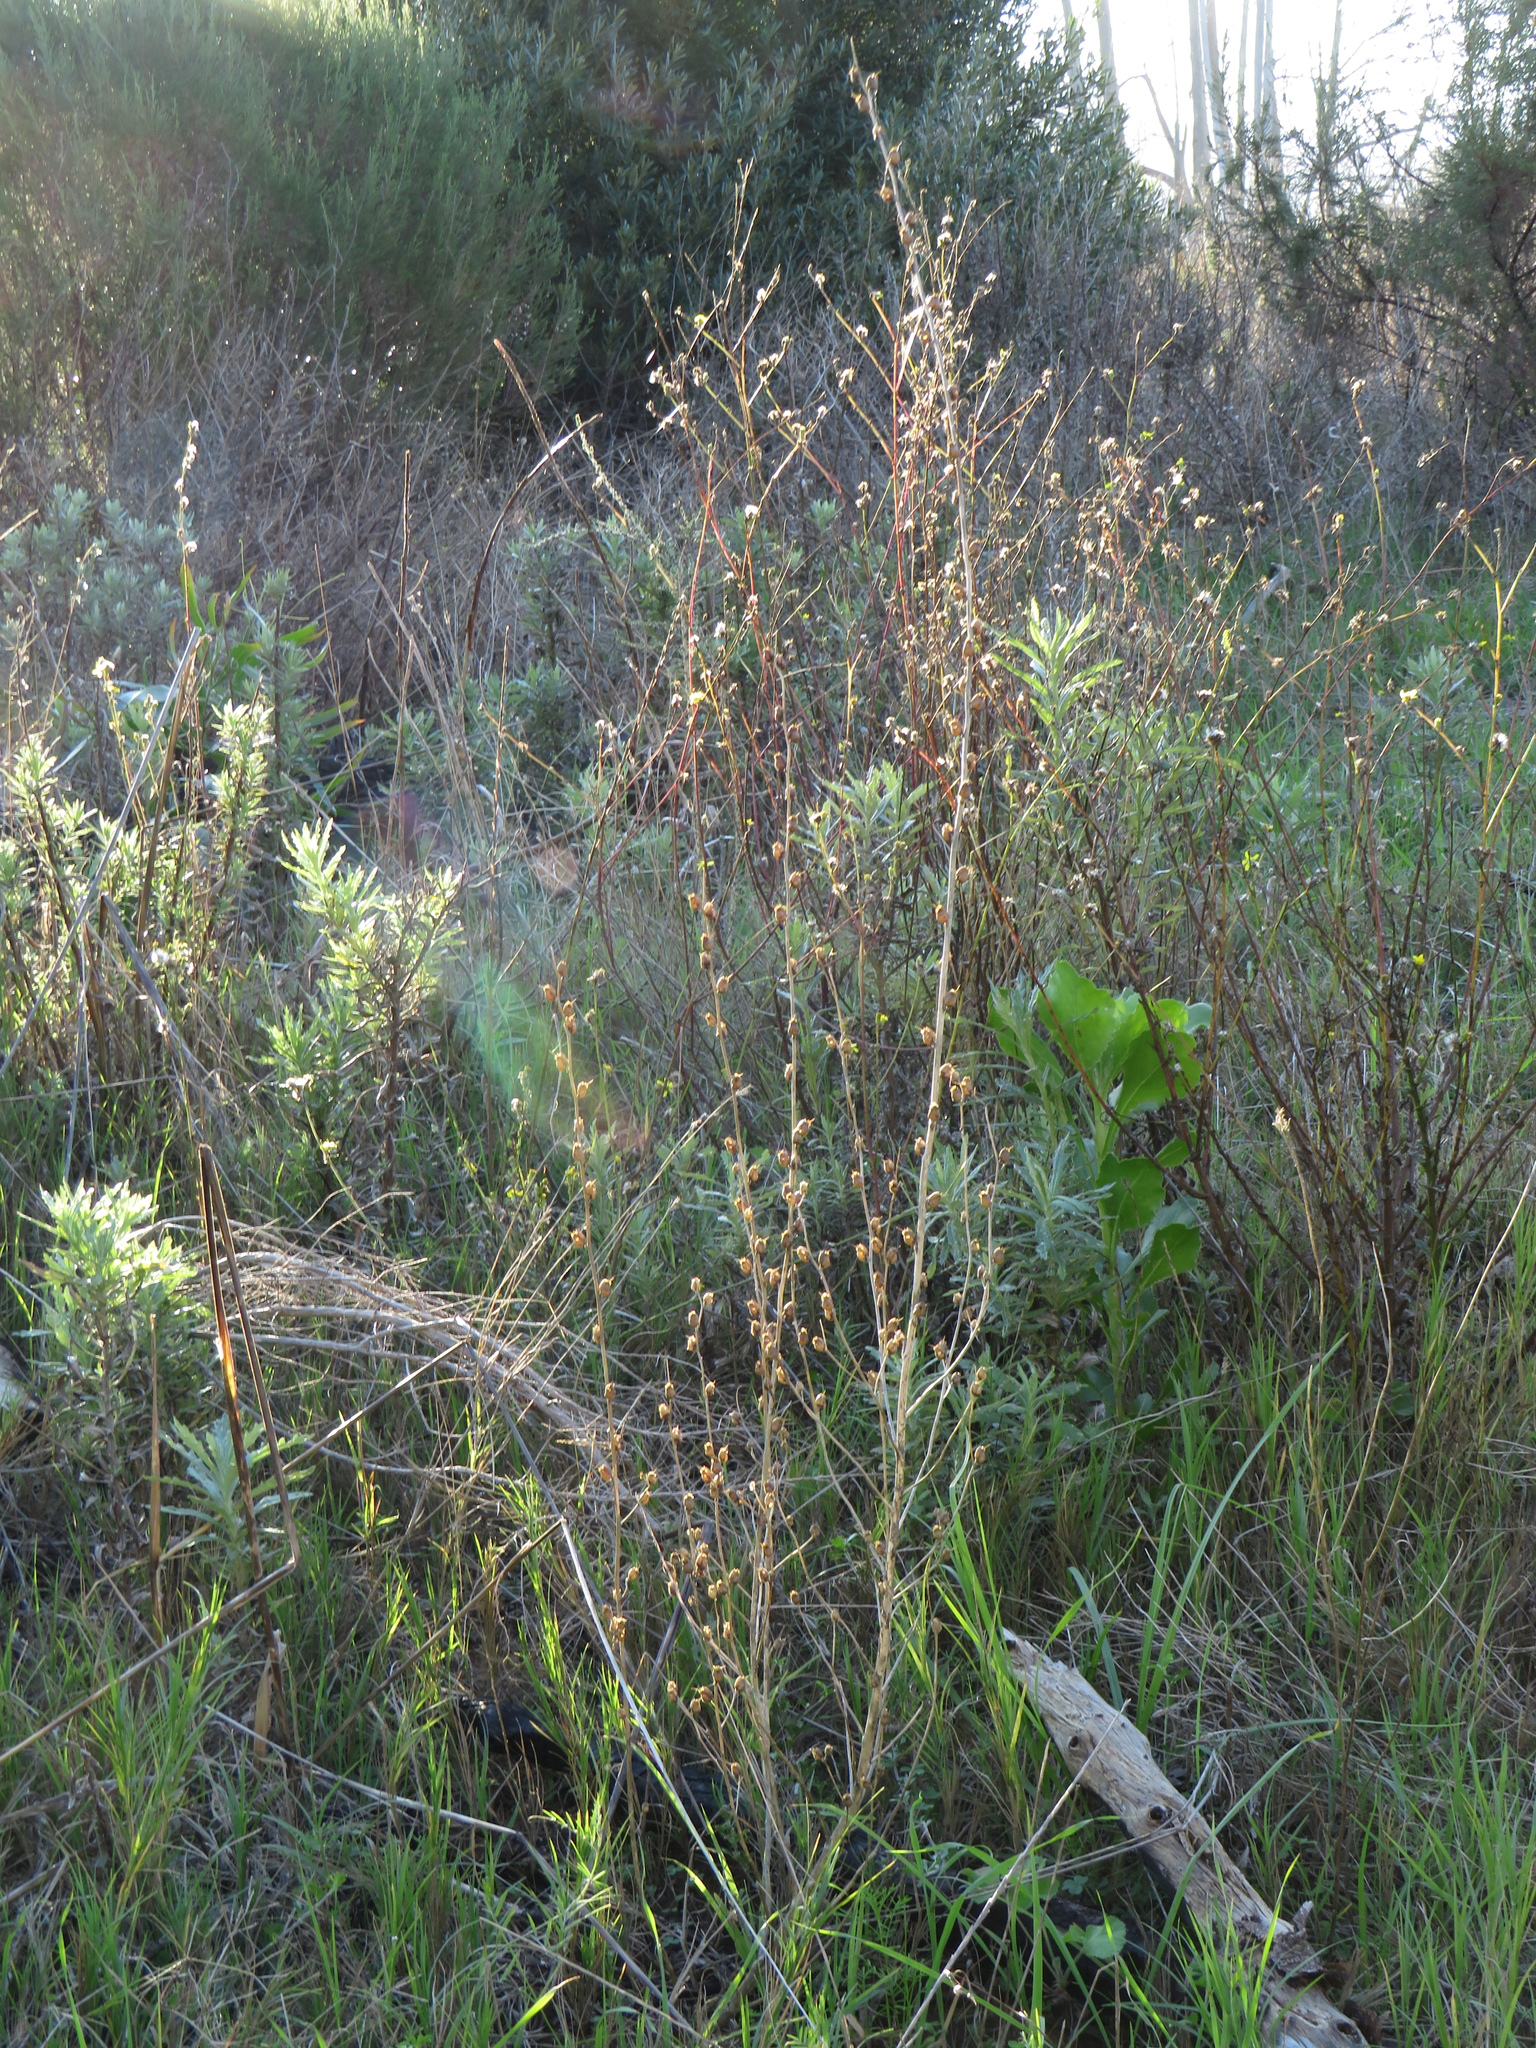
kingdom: Plantae
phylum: Tracheophyta
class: Magnoliopsida
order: Lamiales
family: Plantaginaceae
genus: Misopates
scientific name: Misopates orontium
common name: Weasel's-snout
